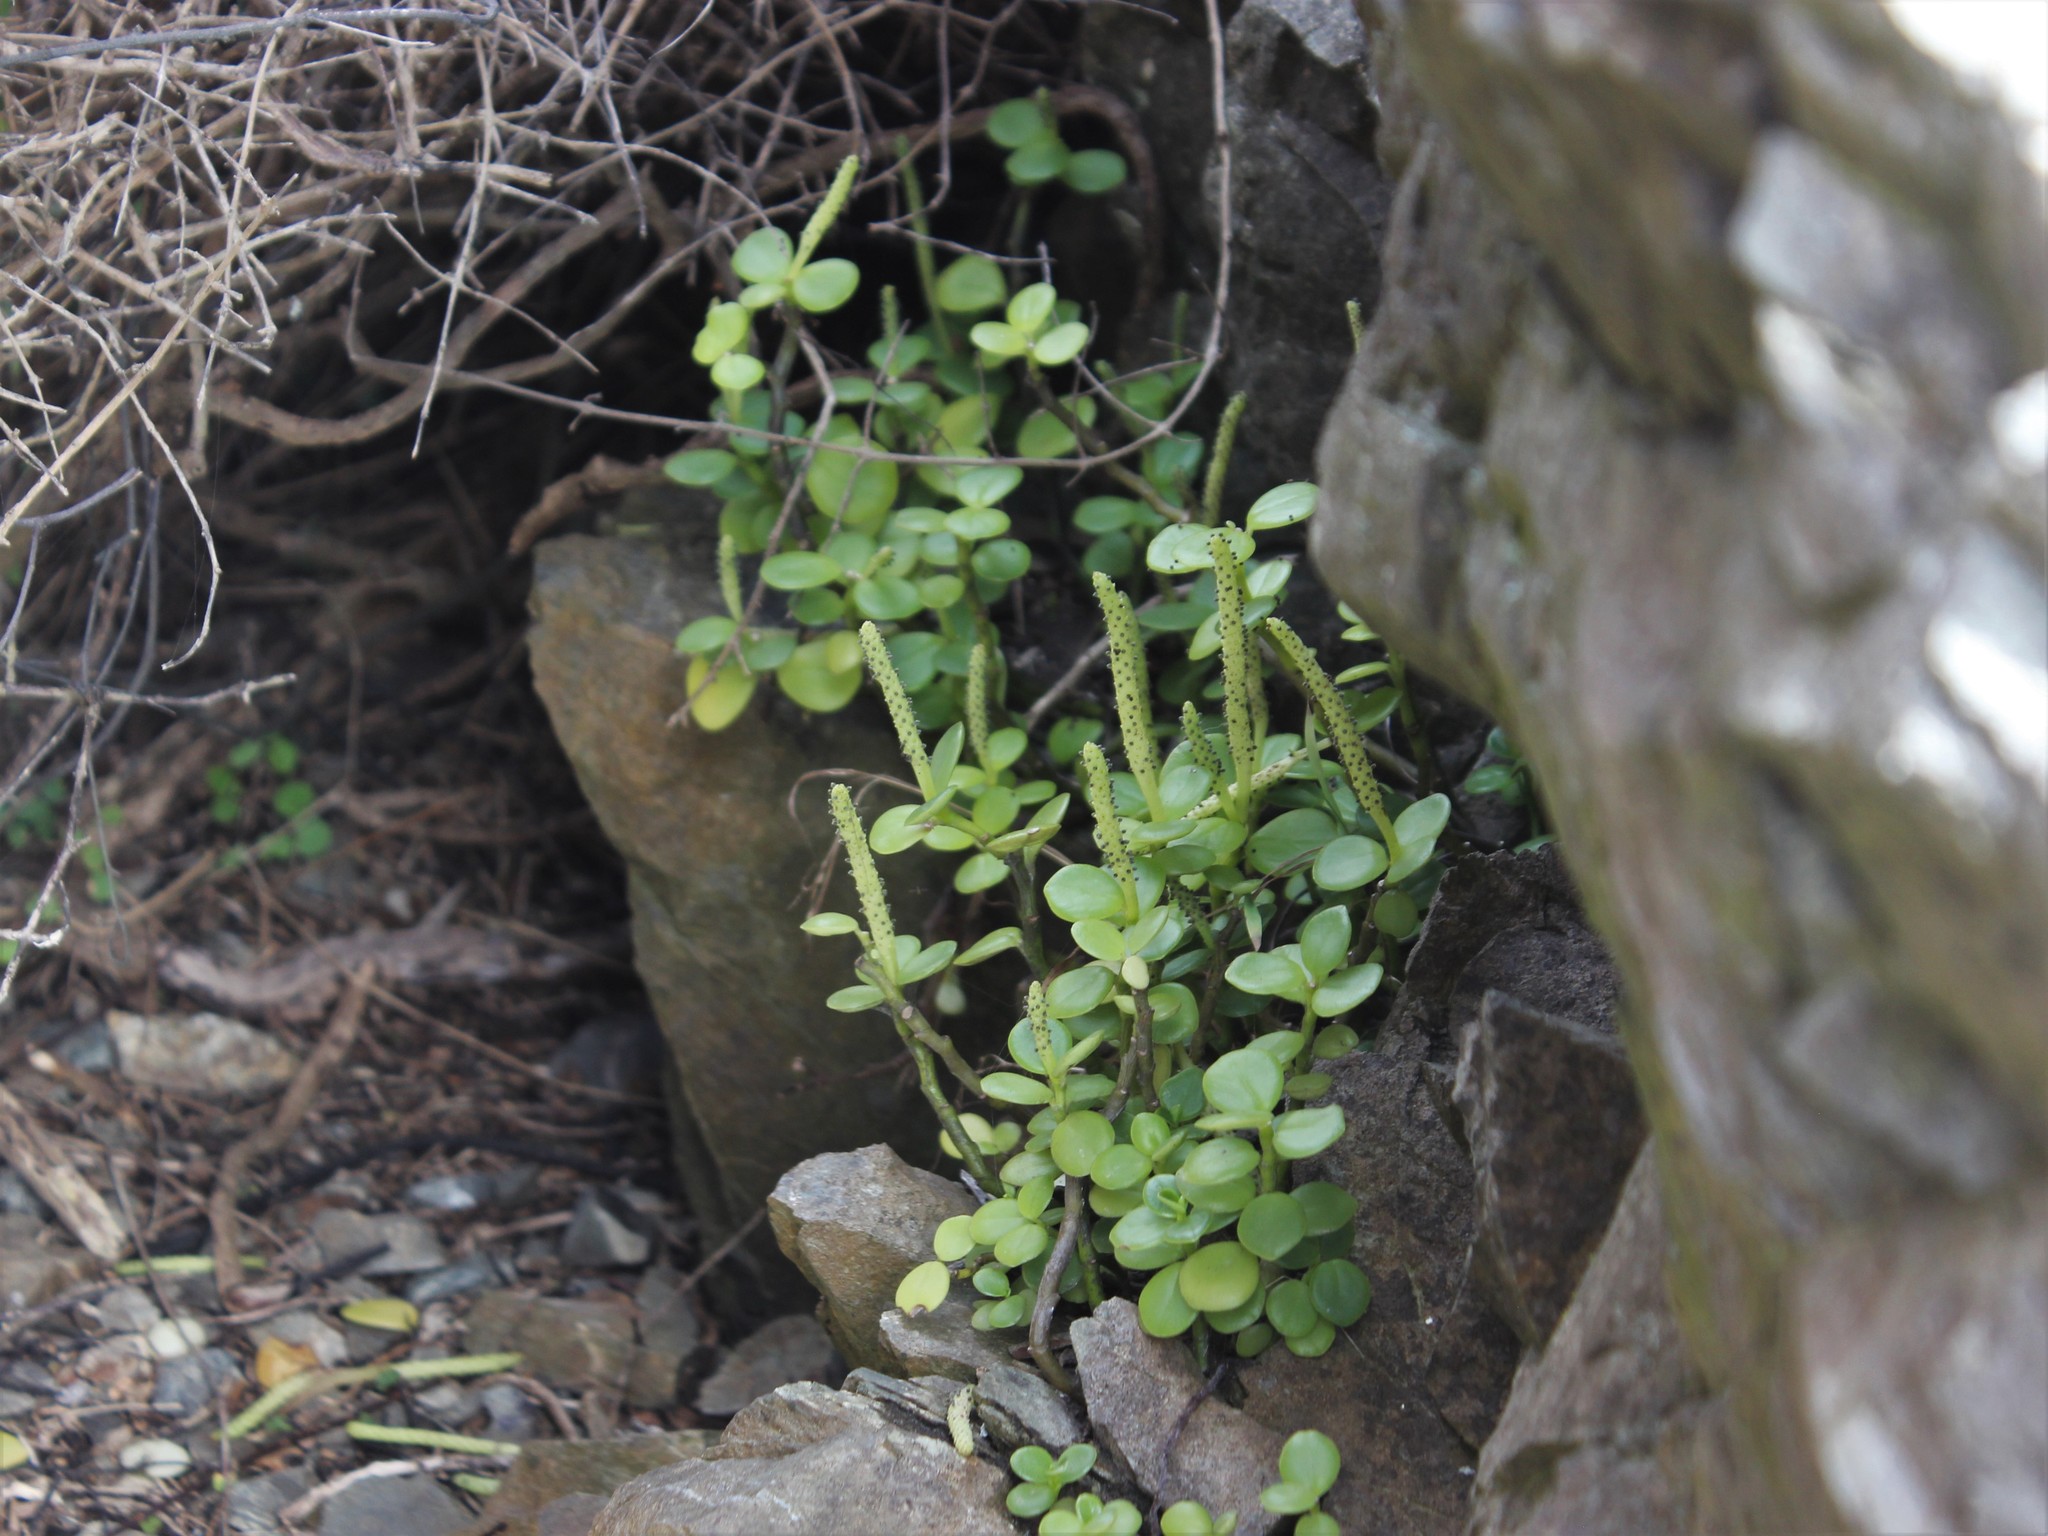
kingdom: Plantae
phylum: Tracheophyta
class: Magnoliopsida
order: Piperales
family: Piperaceae
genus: Peperomia
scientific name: Peperomia urvilleana
